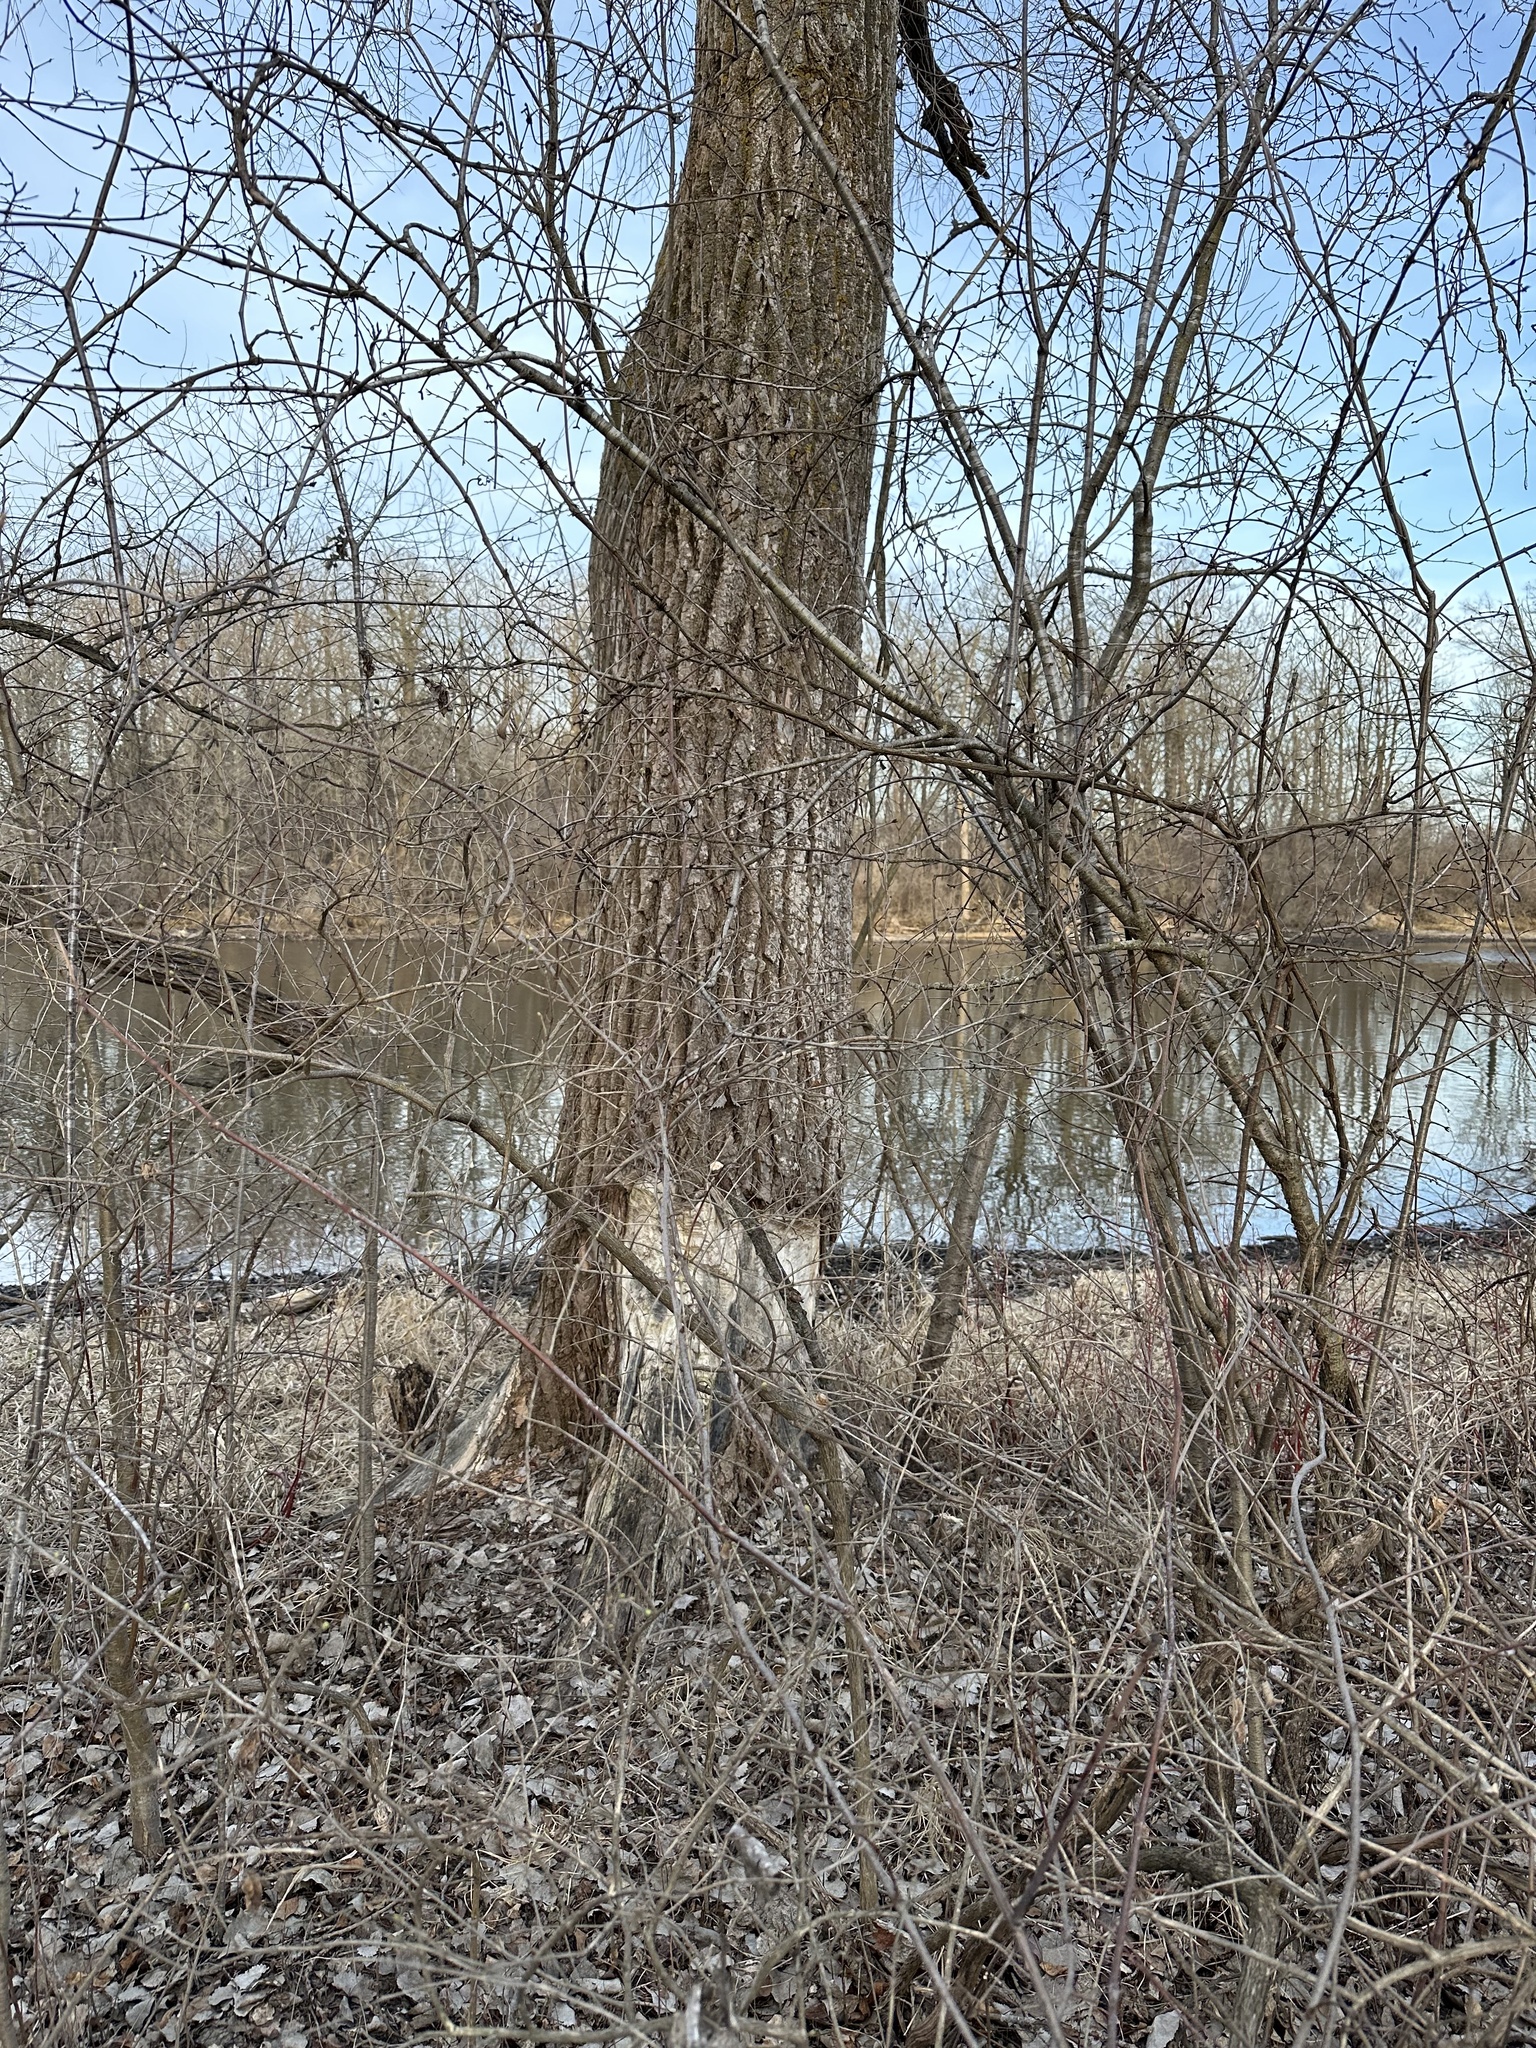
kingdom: Animalia
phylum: Chordata
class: Mammalia
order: Rodentia
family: Castoridae
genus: Castor
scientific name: Castor canadensis
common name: American beaver
